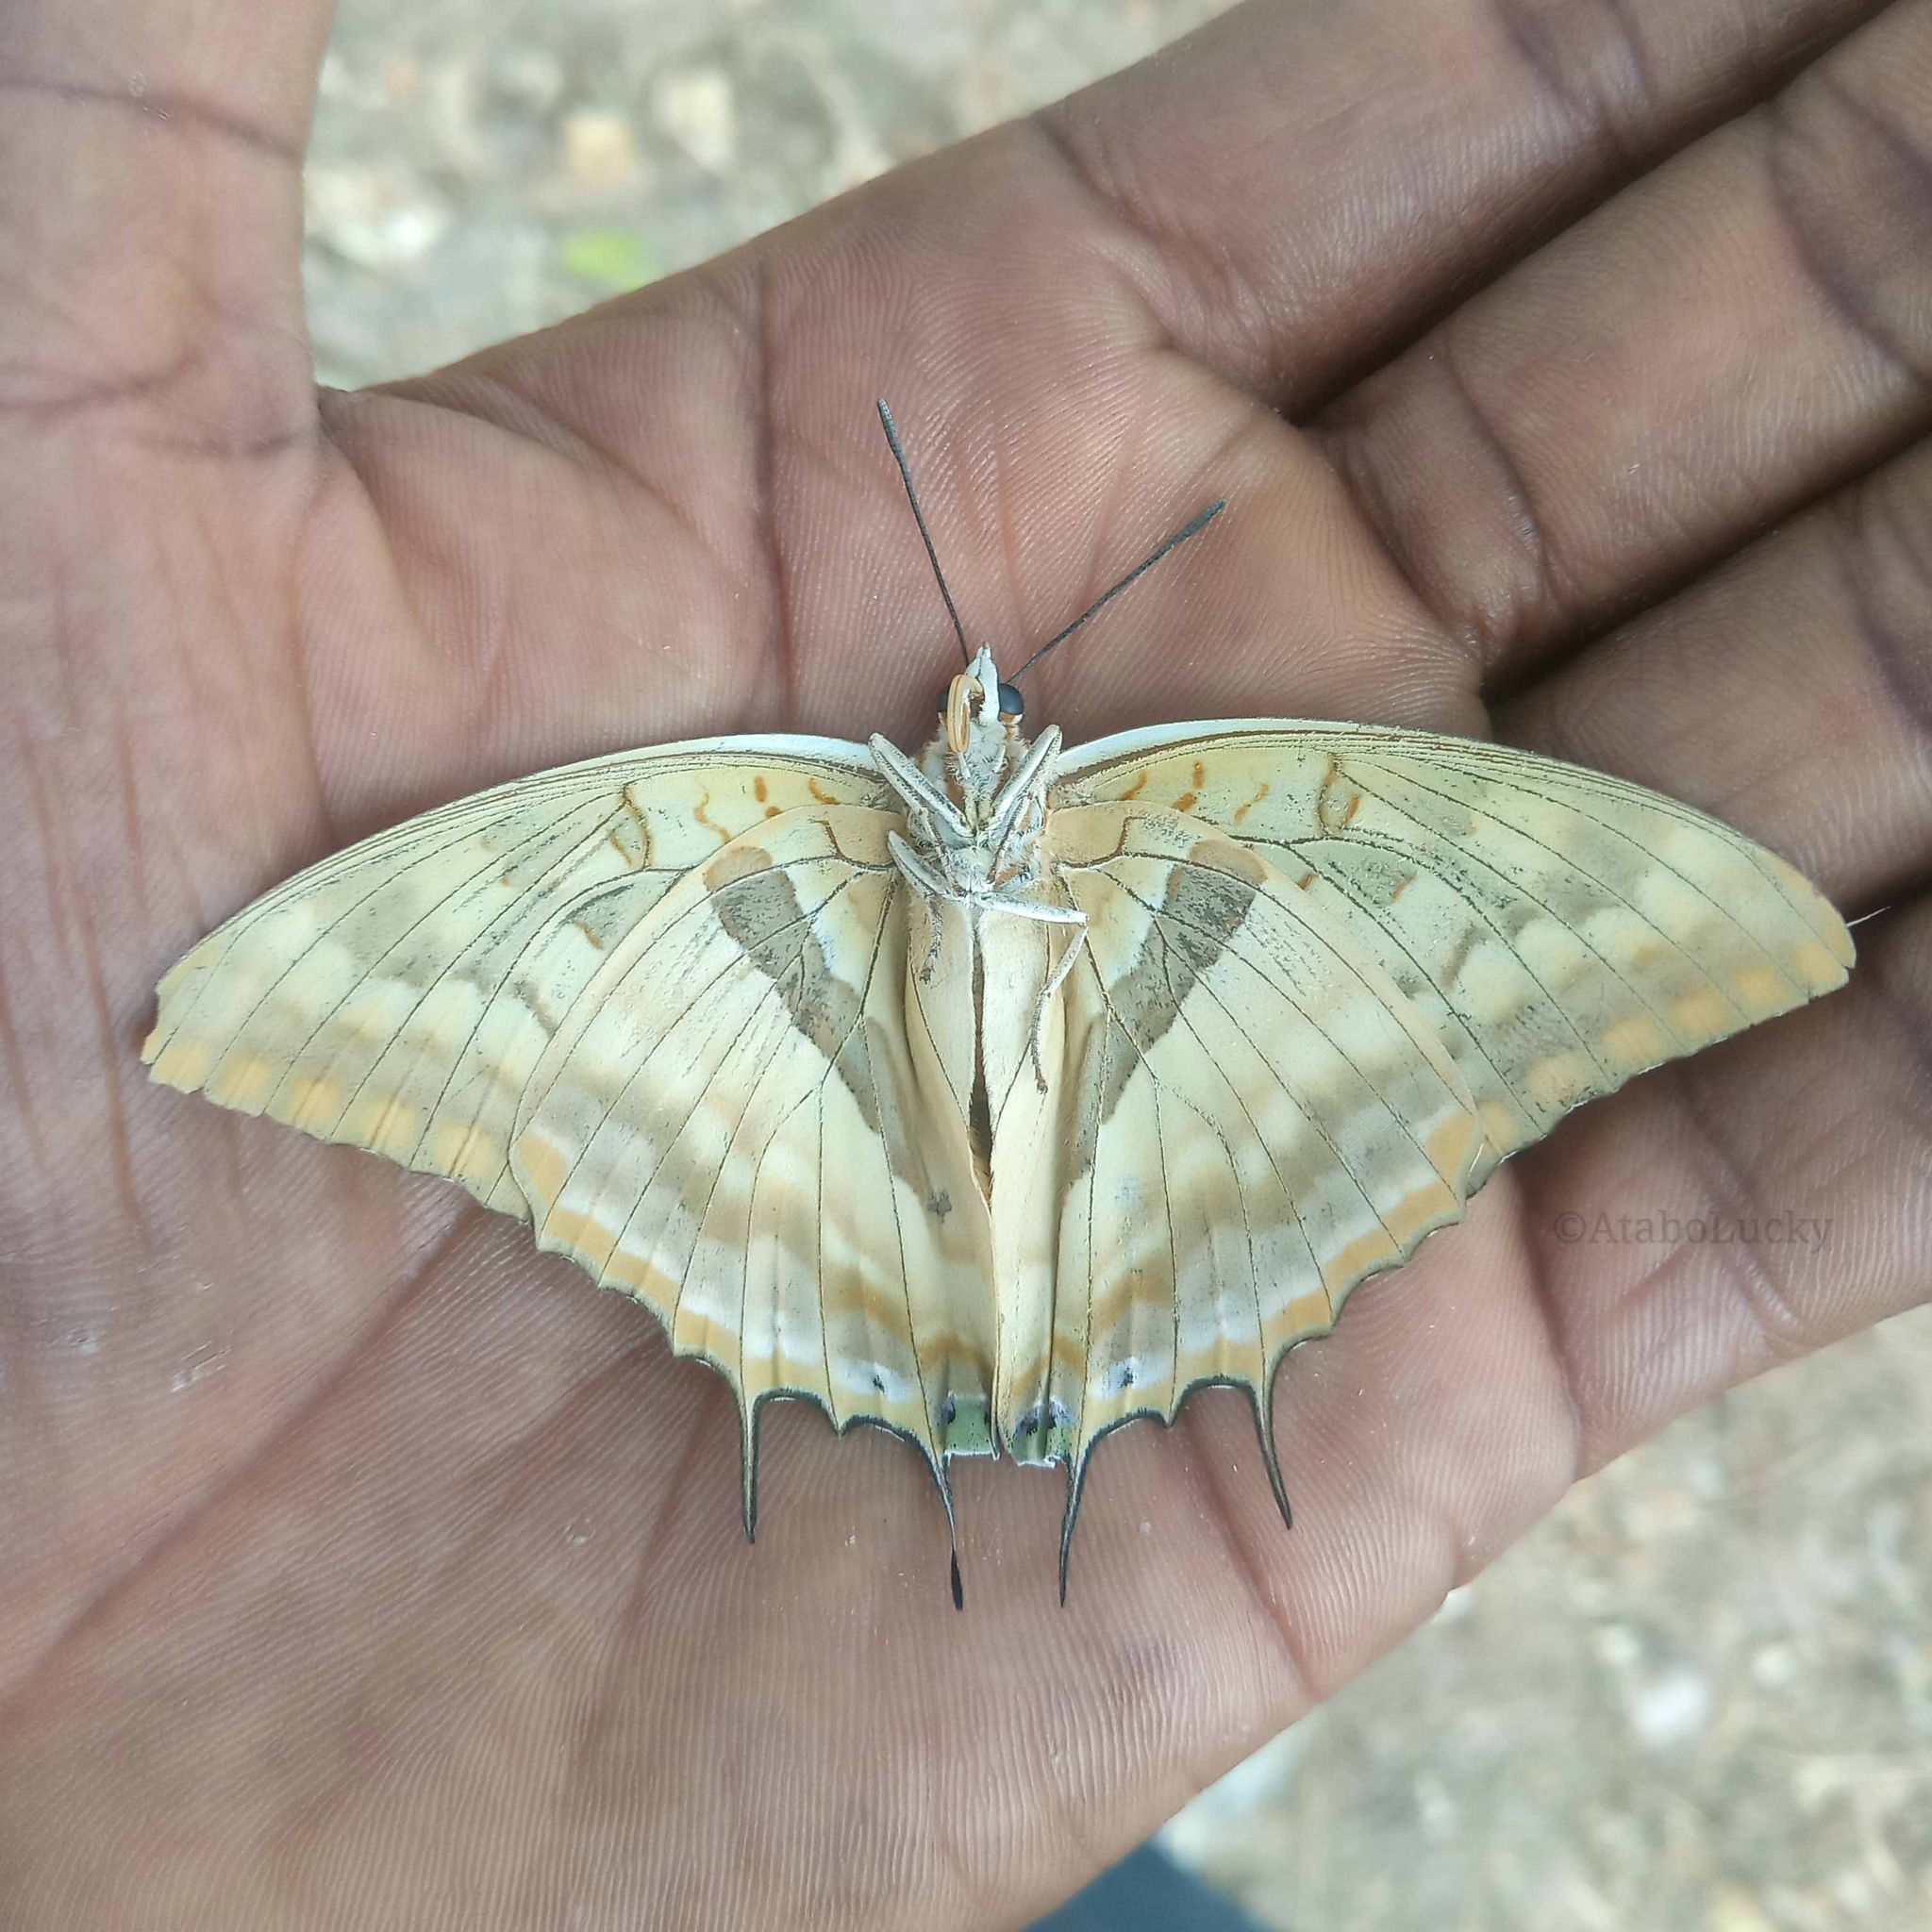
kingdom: Animalia
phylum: Arthropoda
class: Insecta
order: Lepidoptera
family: Nymphalidae
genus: Charaxes
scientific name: Charaxes boueti
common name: Bamboo charaxes
